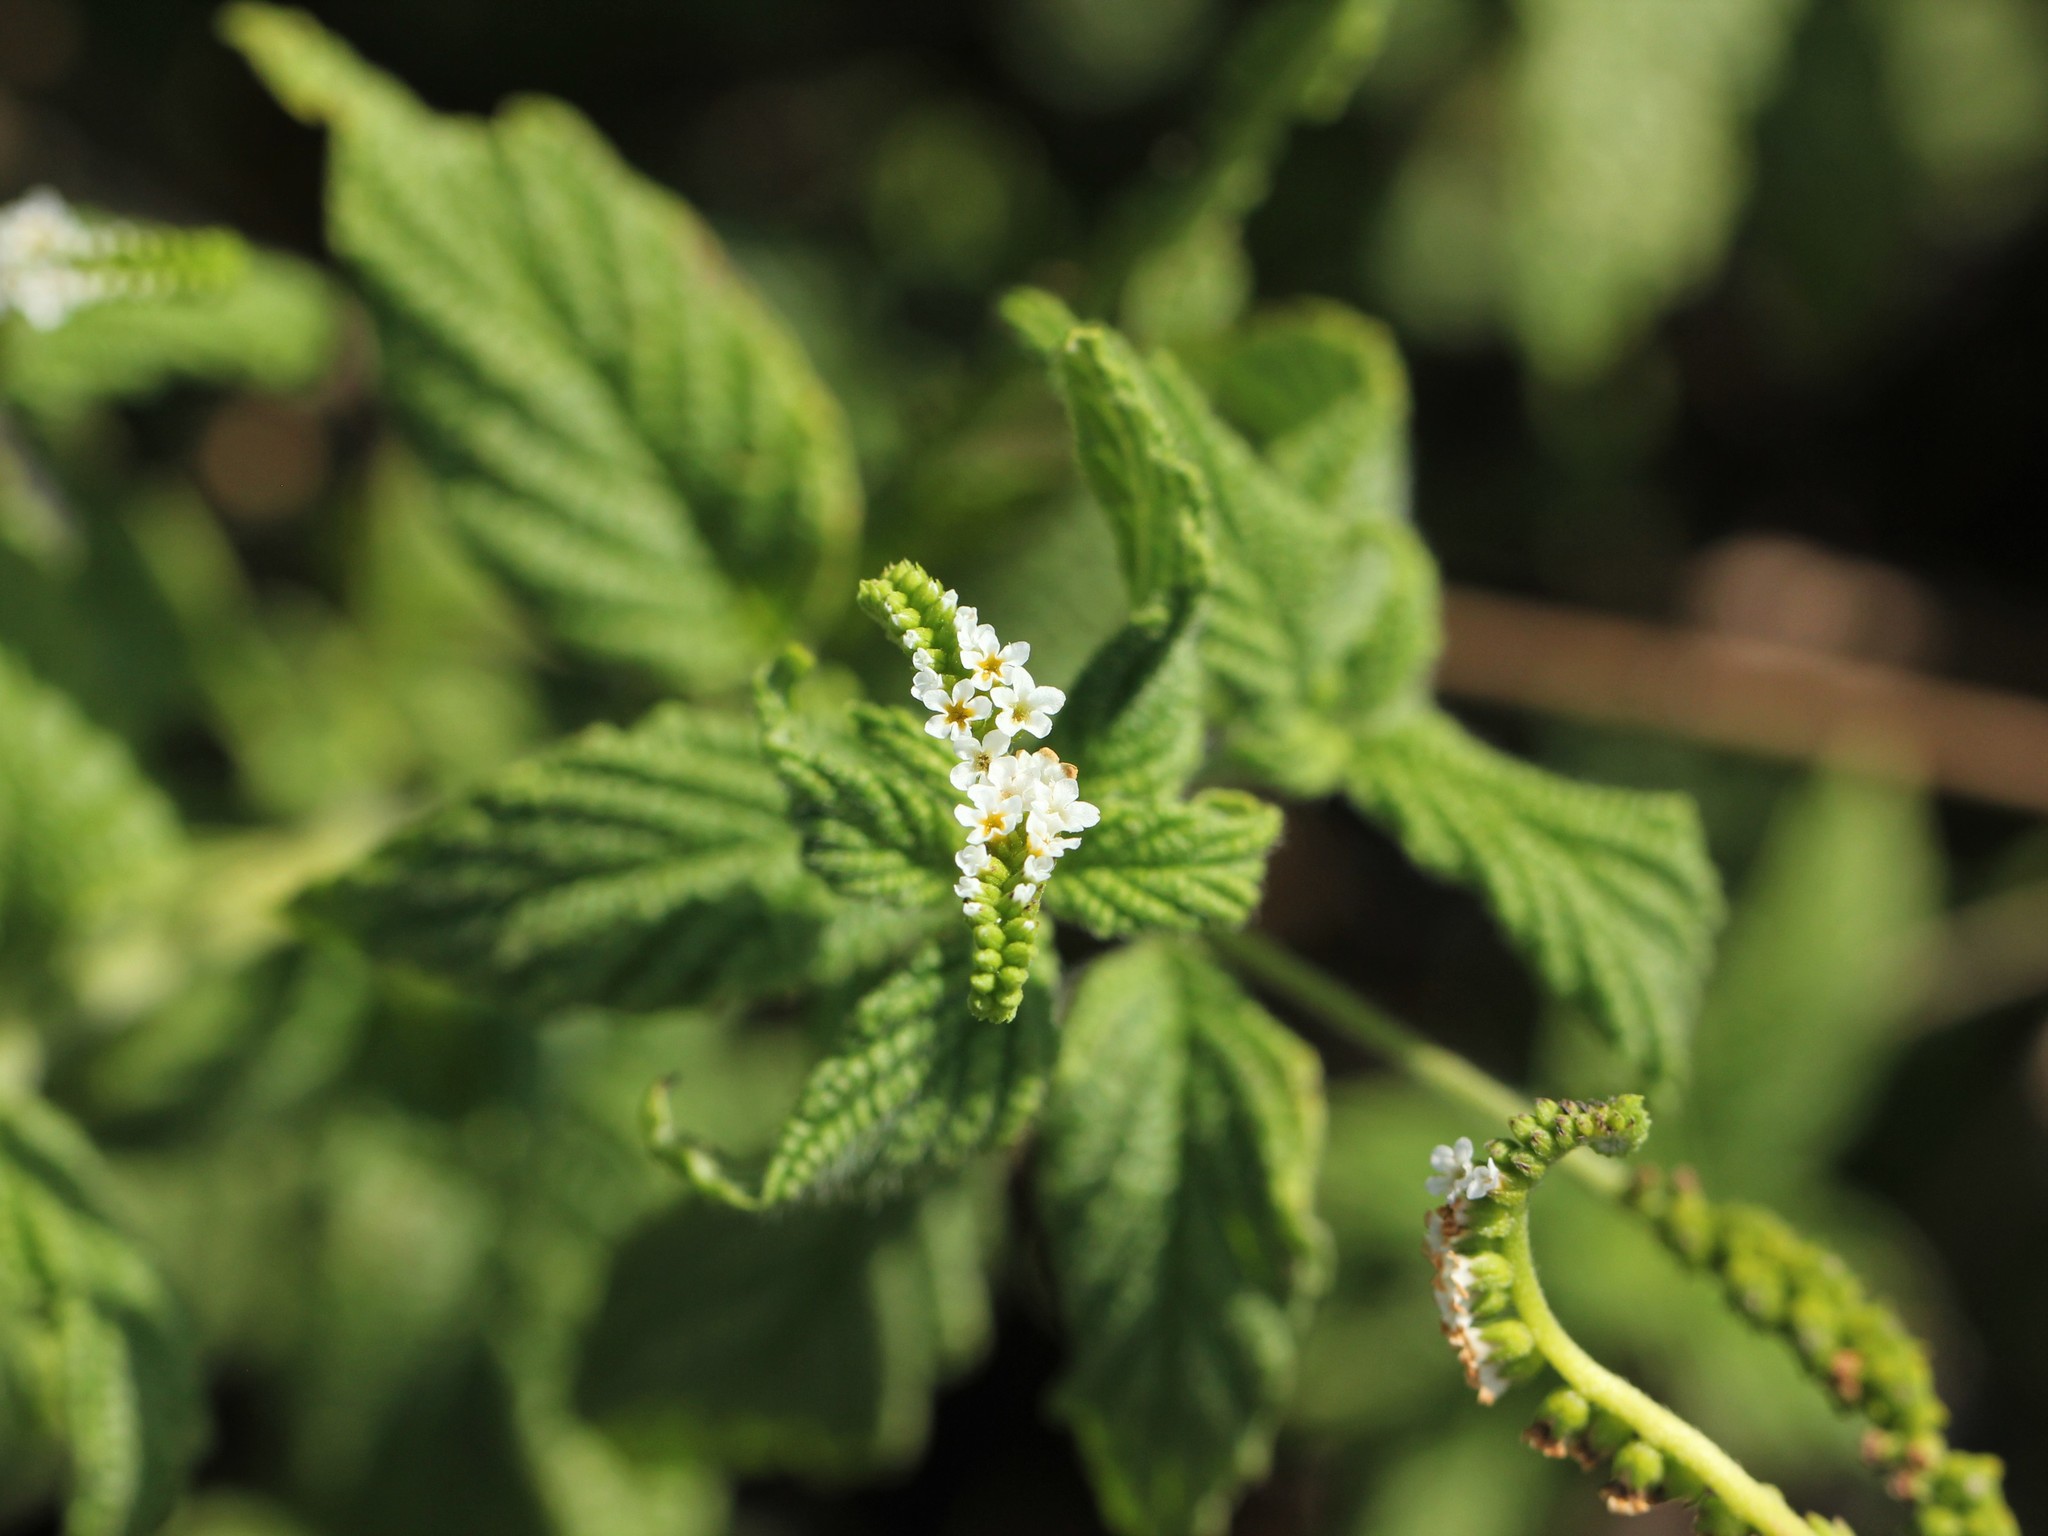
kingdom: Plantae
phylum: Tracheophyta
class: Magnoliopsida
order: Boraginales
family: Heliotropiaceae
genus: Heliotropium
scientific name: Heliotropium angiospermum
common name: Eye bright
